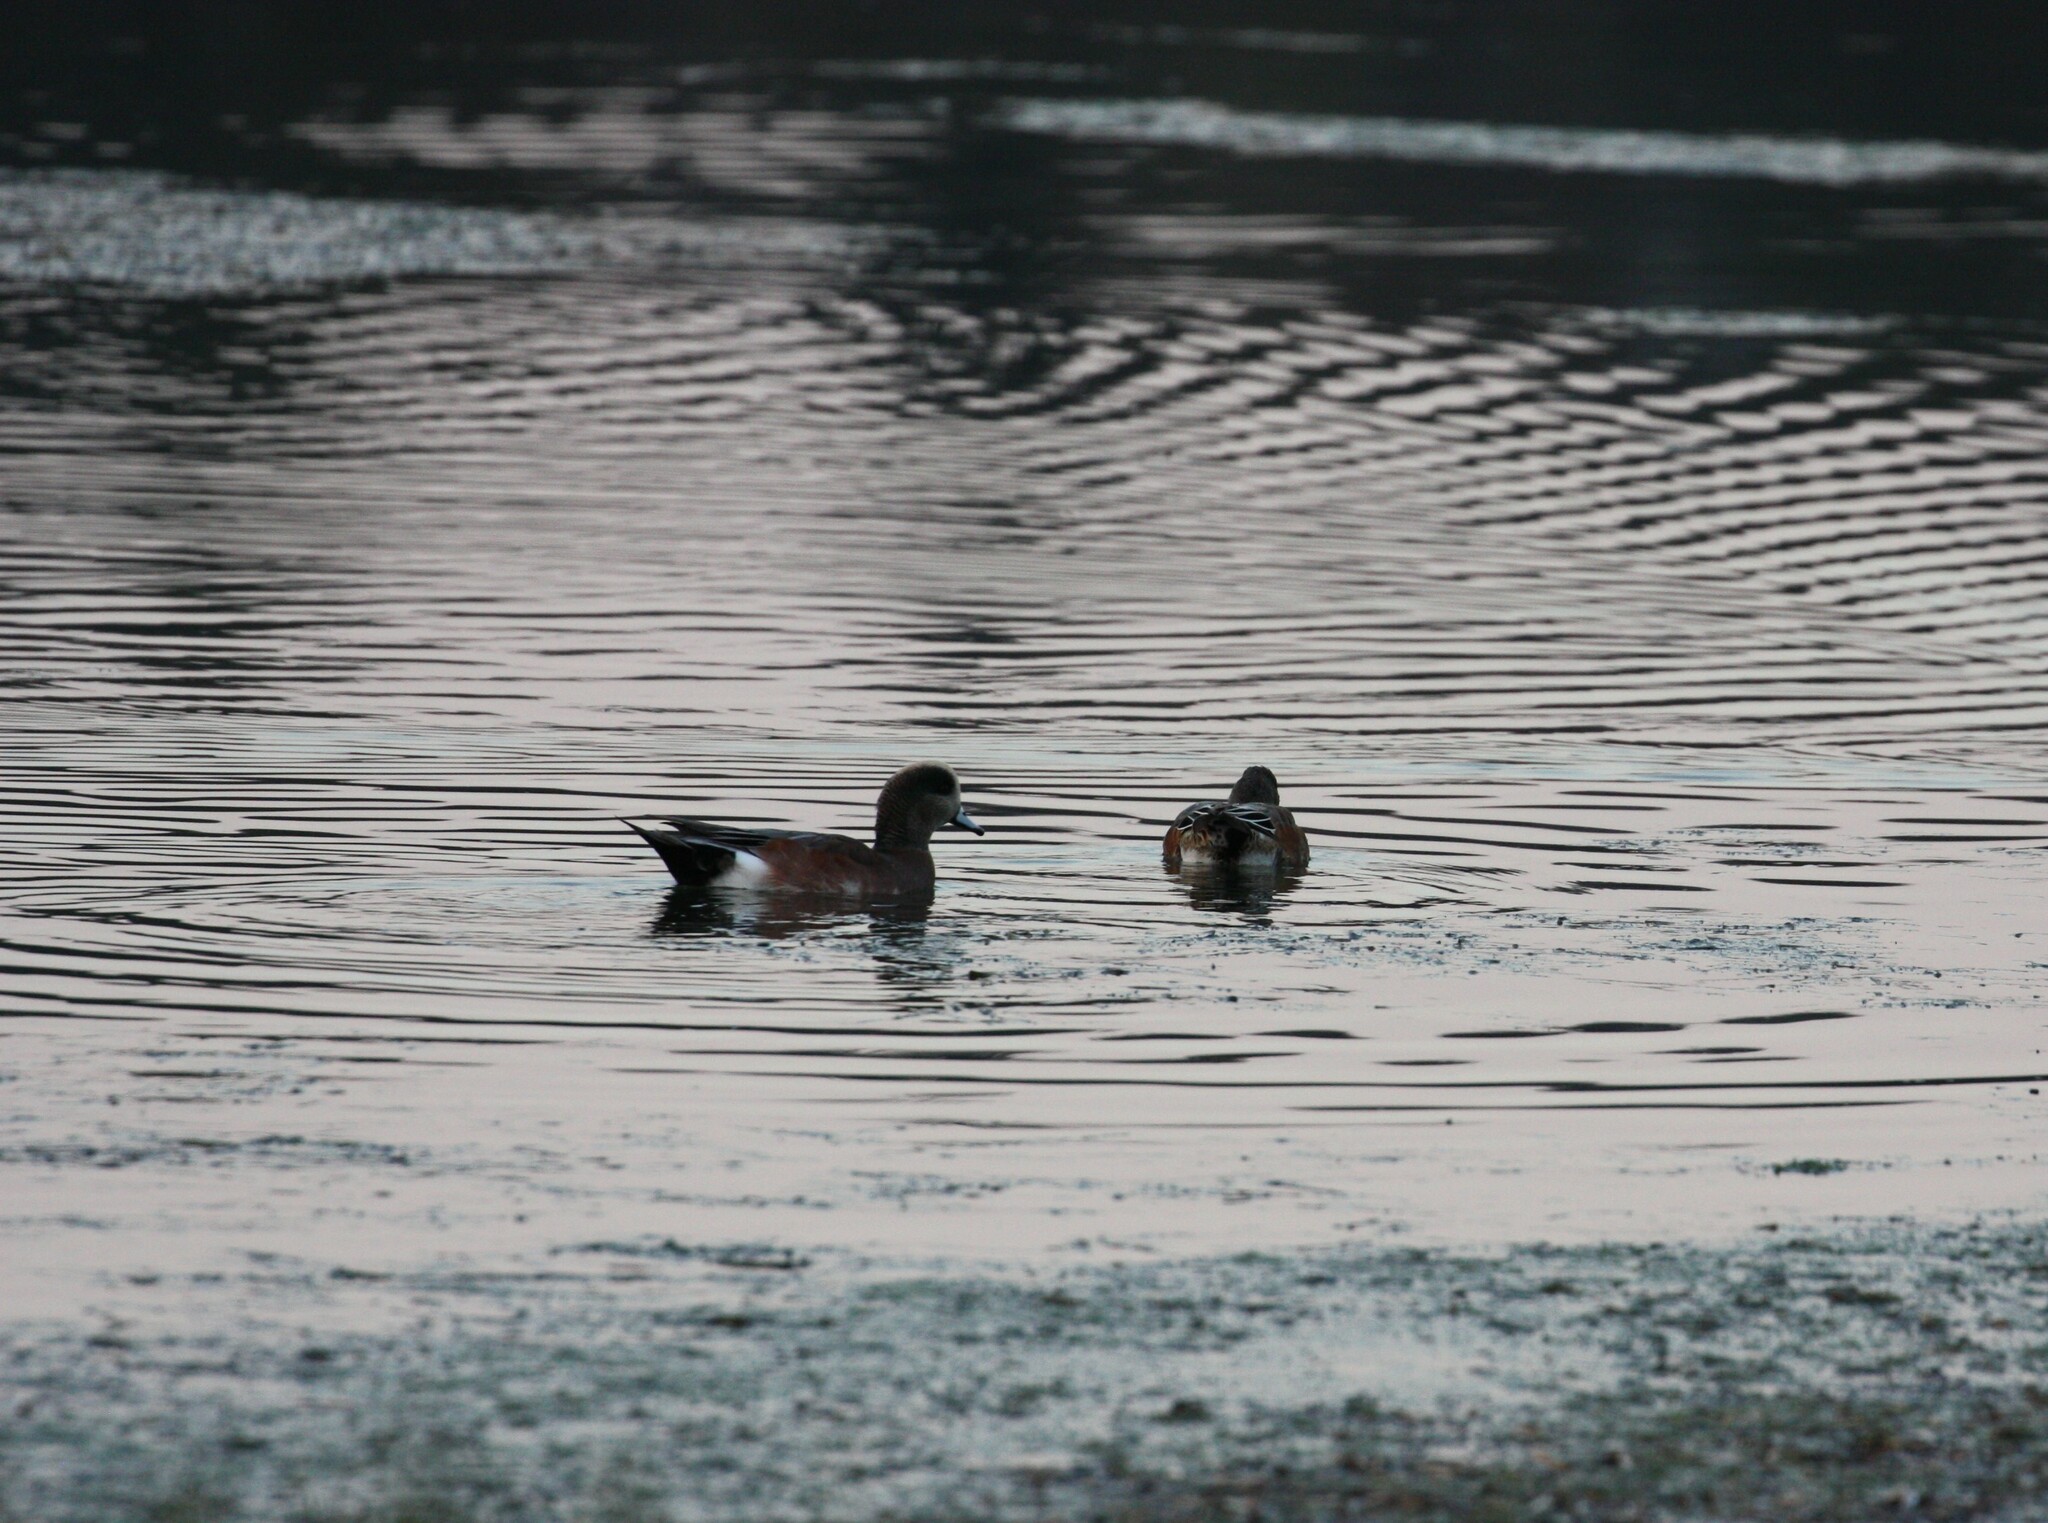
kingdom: Animalia
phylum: Chordata
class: Aves
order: Anseriformes
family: Anatidae
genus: Mareca
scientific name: Mareca americana
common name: American wigeon
